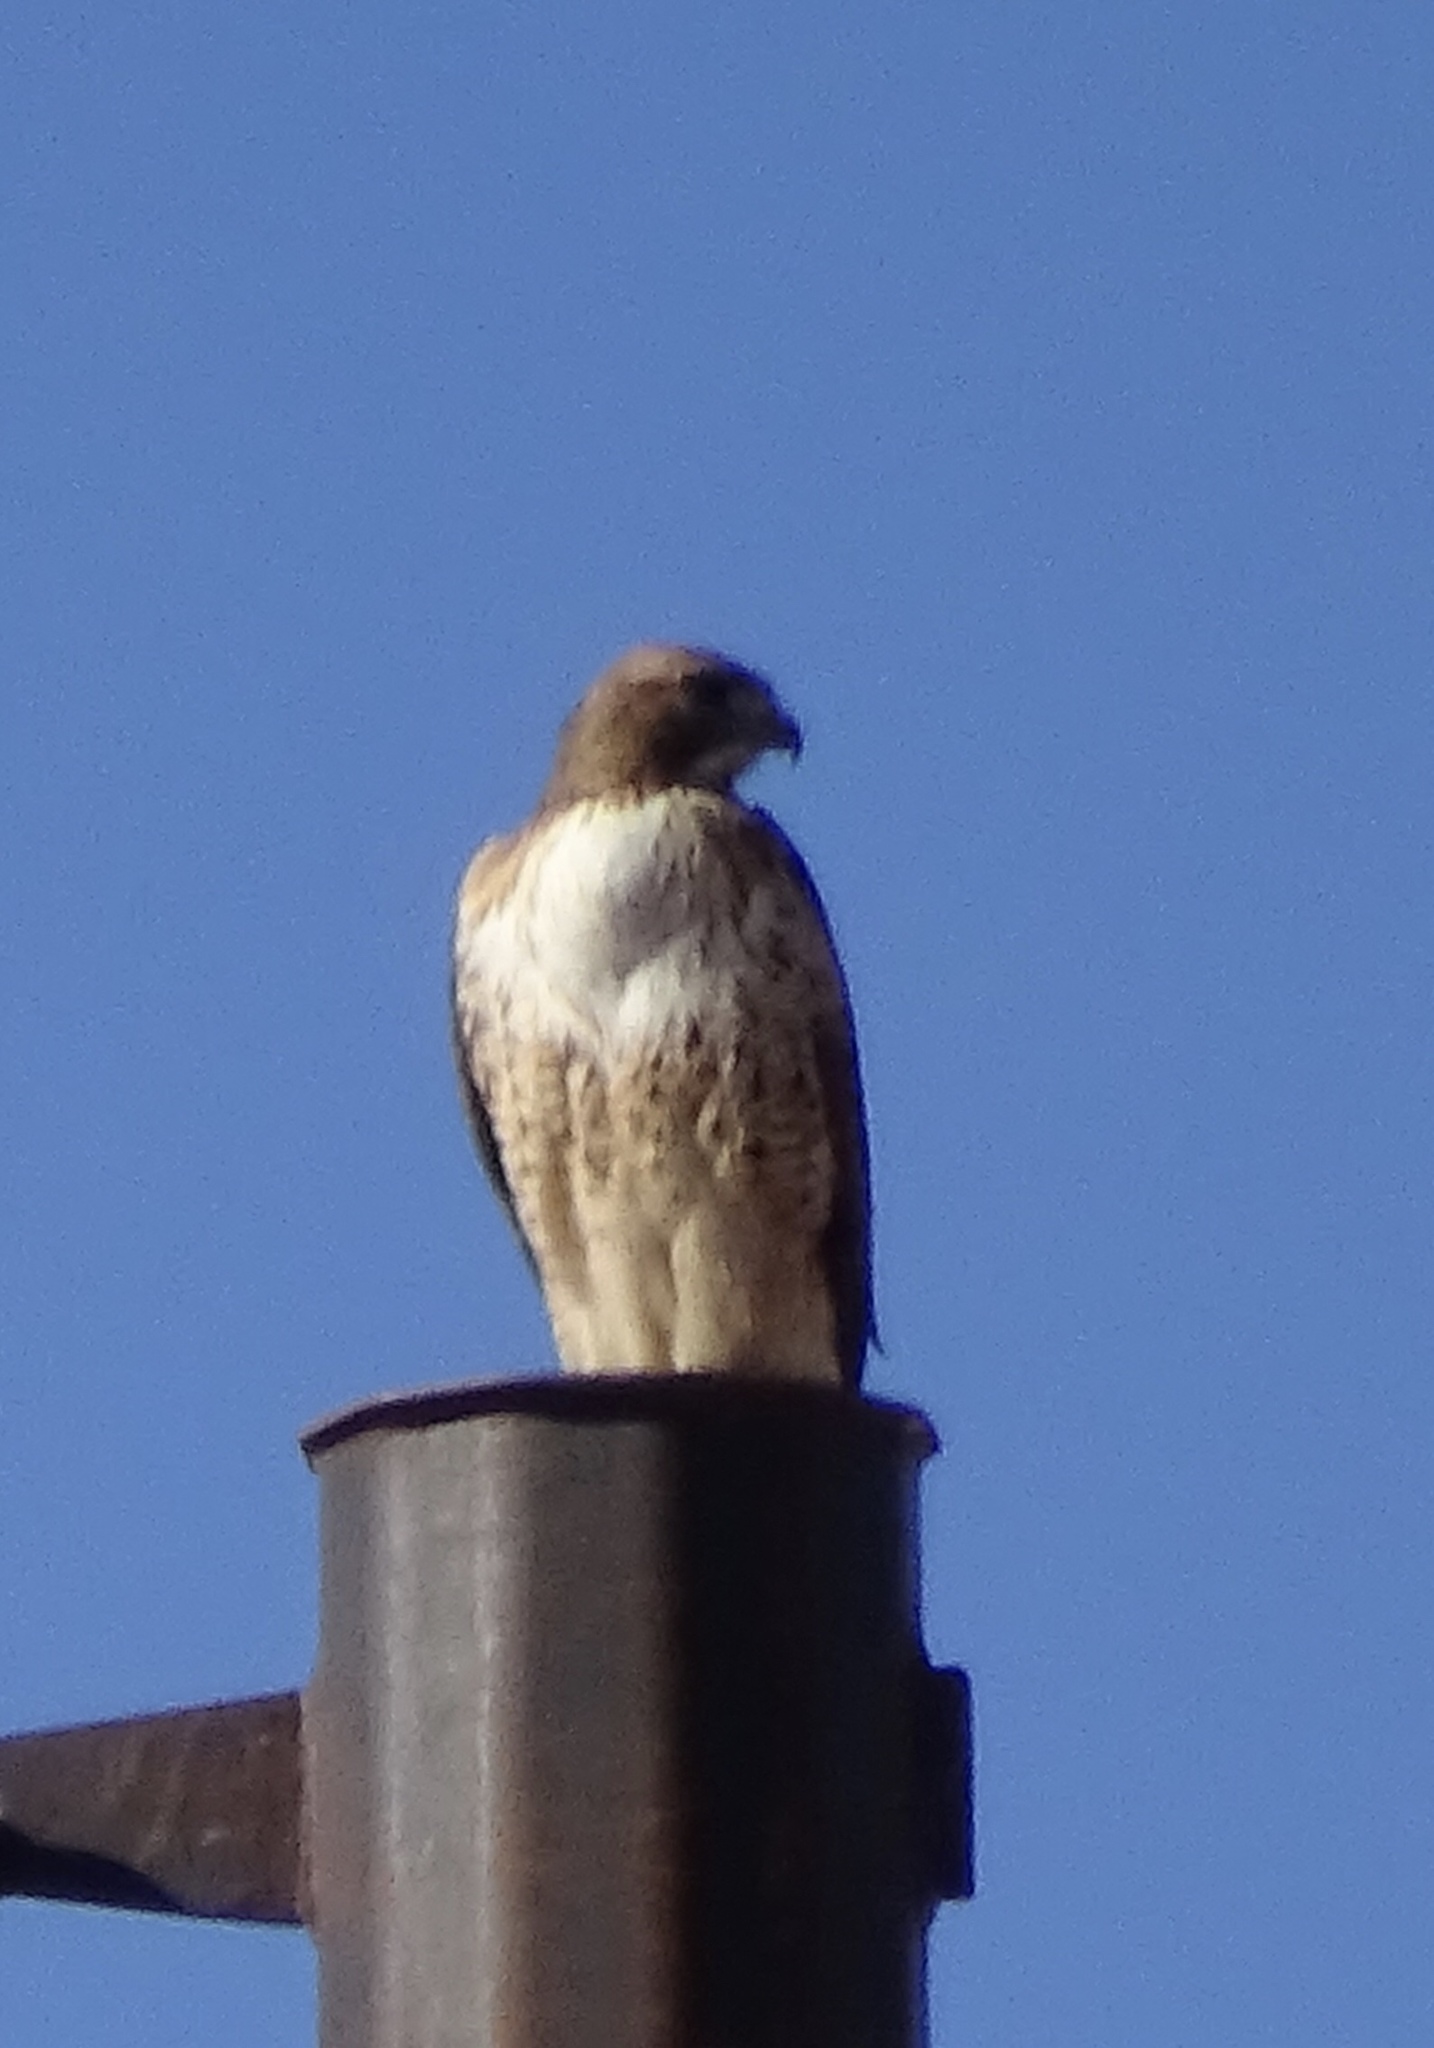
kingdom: Animalia
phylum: Chordata
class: Aves
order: Accipitriformes
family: Accipitridae
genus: Buteo
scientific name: Buteo jamaicensis
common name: Red-tailed hawk
